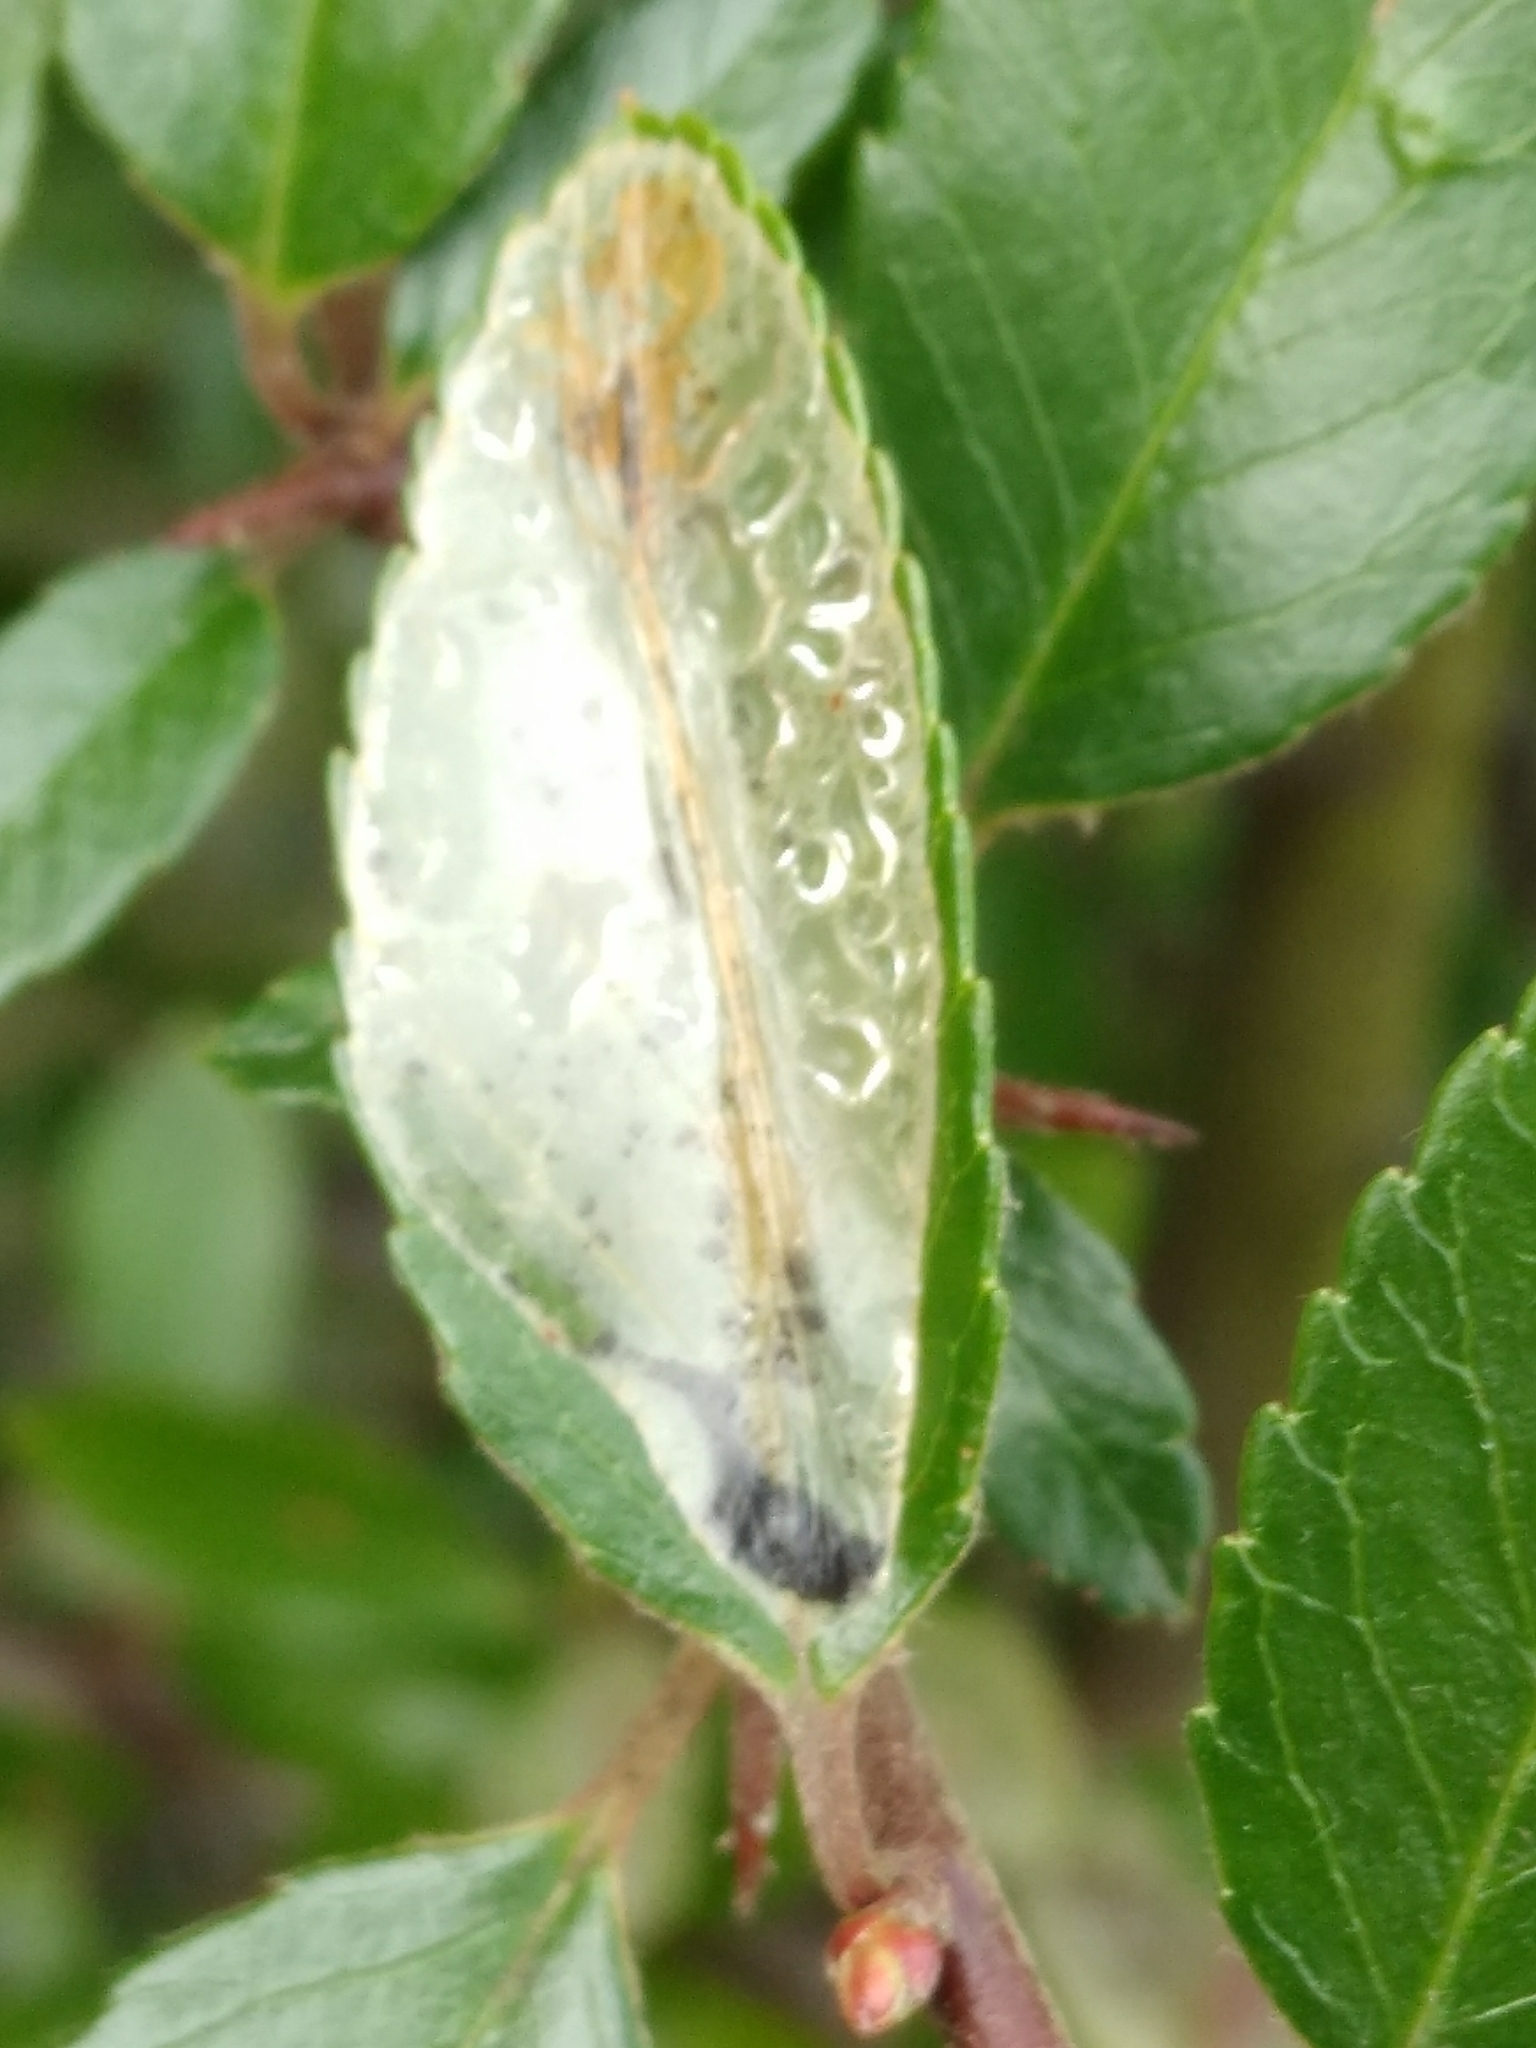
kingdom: Animalia
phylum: Arthropoda
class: Insecta
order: Lepidoptera
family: Gracillariidae
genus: Phyllonorycter
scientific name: Phyllonorycter leucographella
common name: Firethorn leaf-miner
